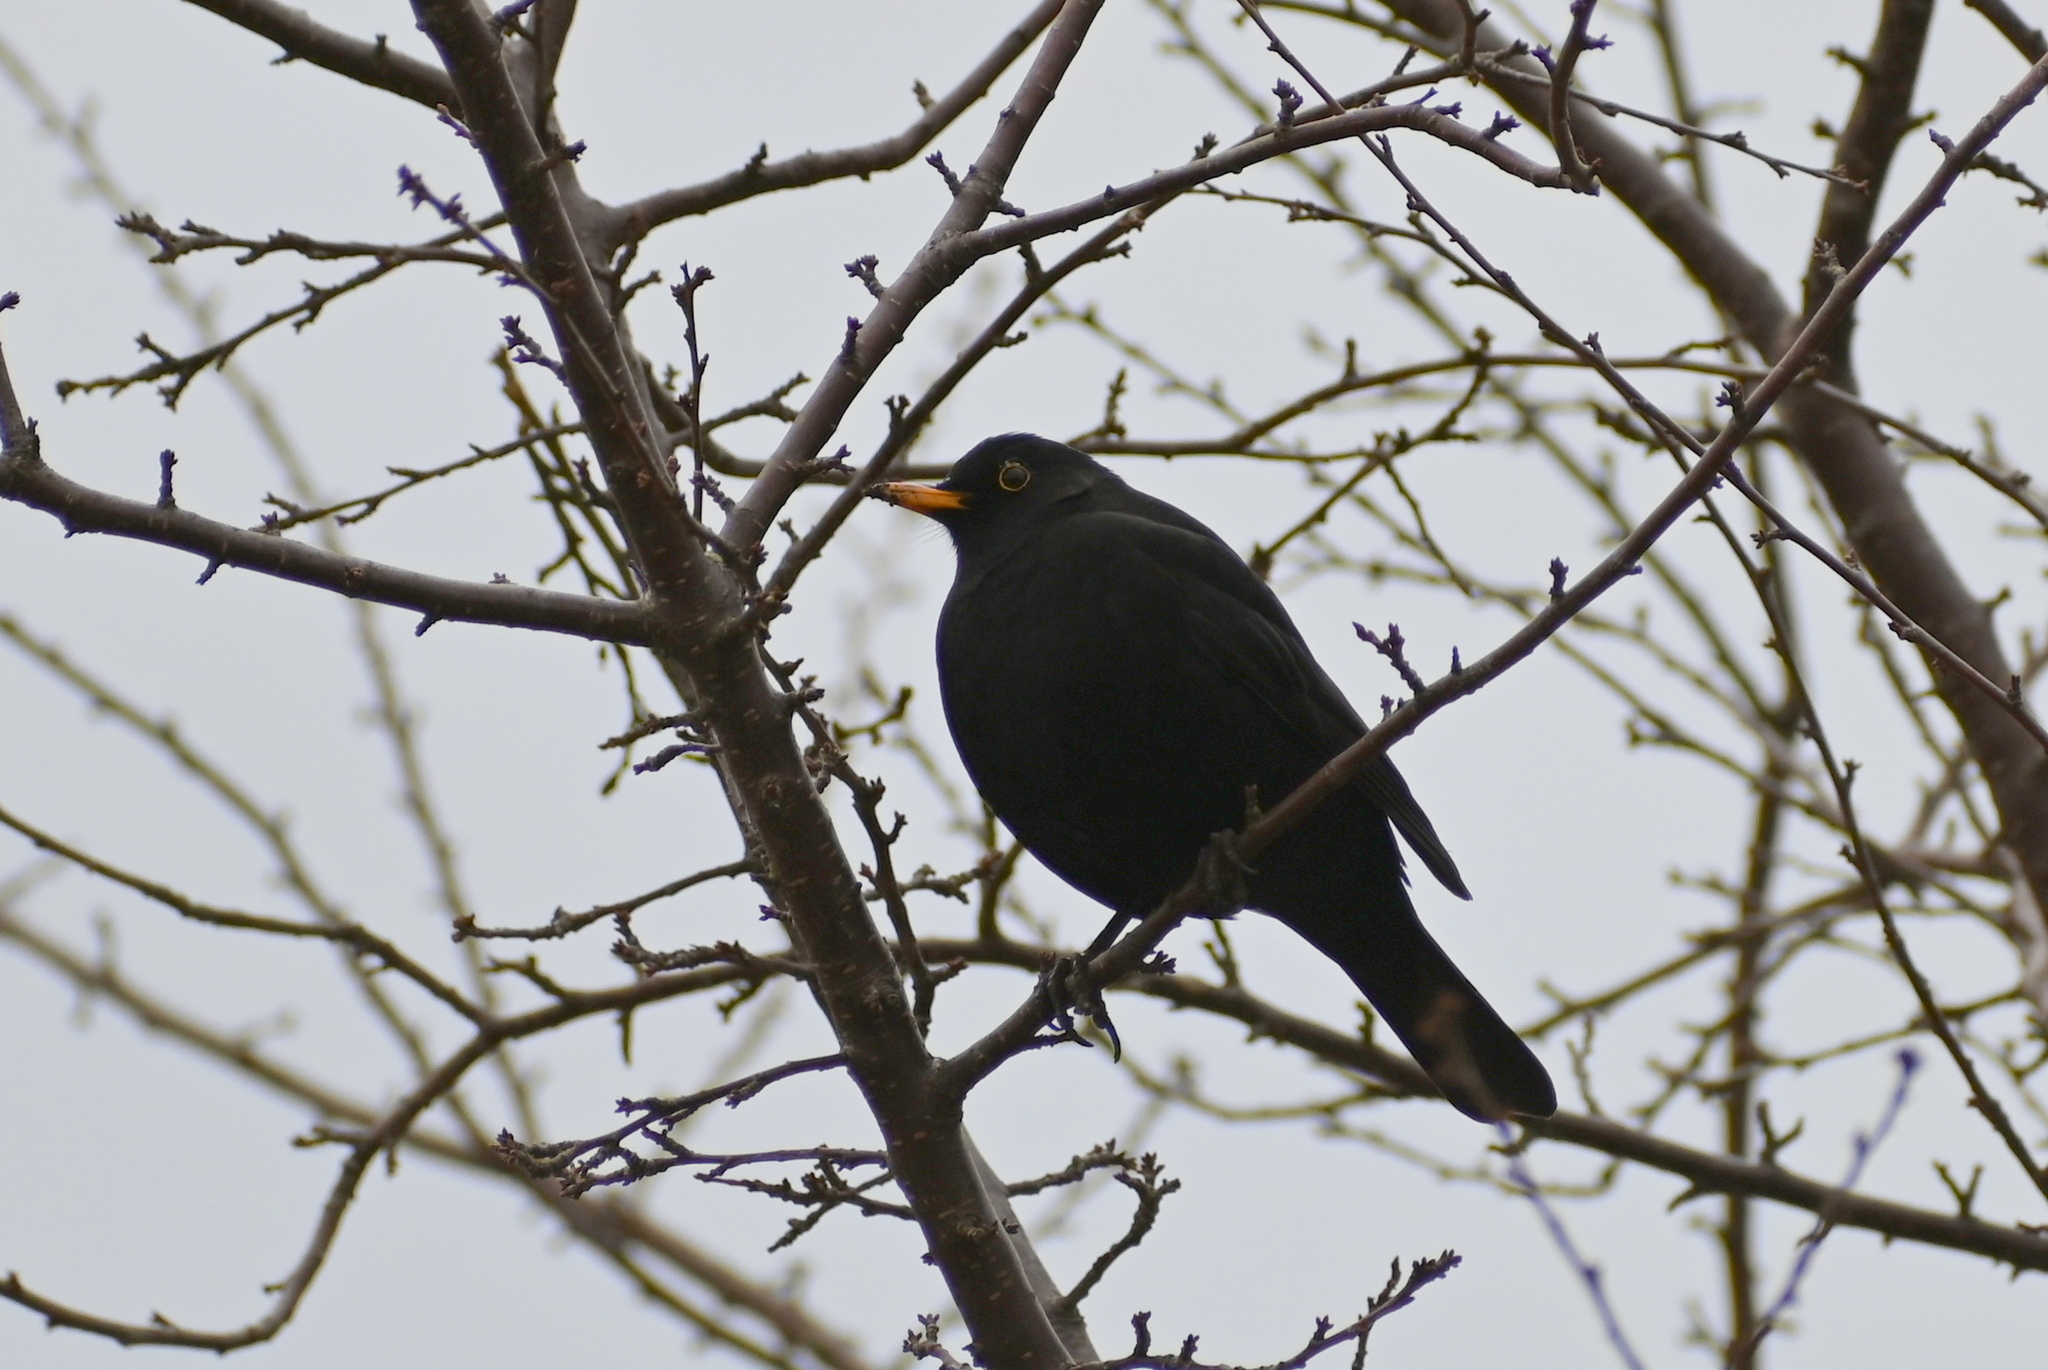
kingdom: Animalia
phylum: Chordata
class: Aves
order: Passeriformes
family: Turdidae
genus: Turdus
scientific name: Turdus merula
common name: Common blackbird
